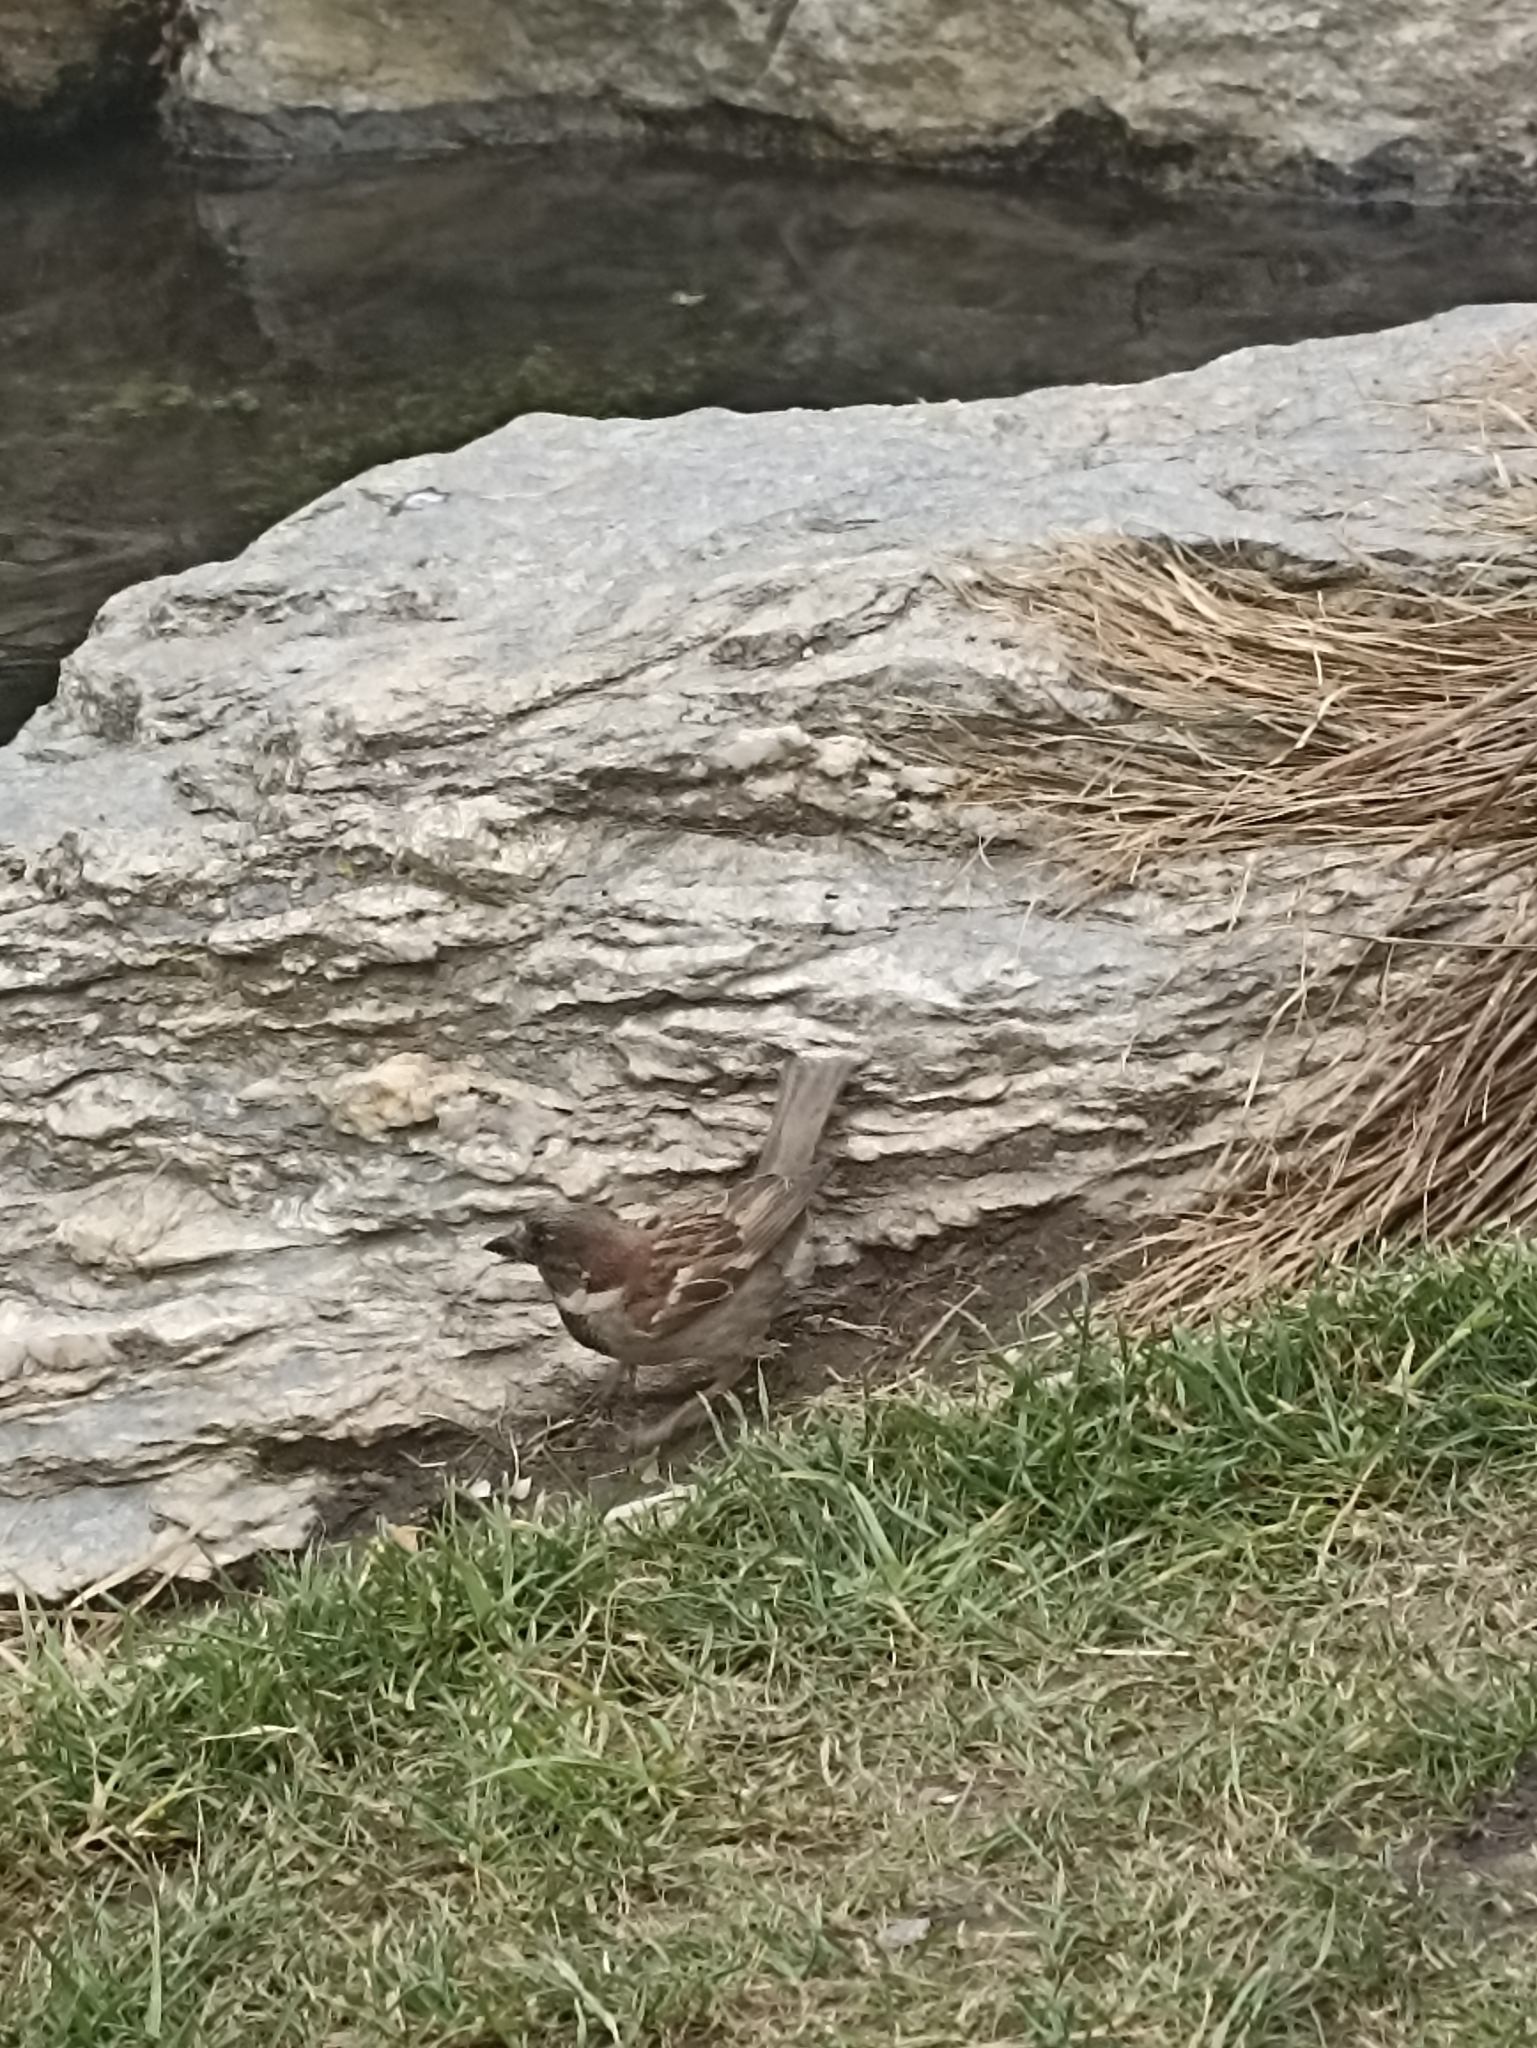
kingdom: Animalia
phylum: Chordata
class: Aves
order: Passeriformes
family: Passeridae
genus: Passer
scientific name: Passer domesticus
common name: House sparrow
